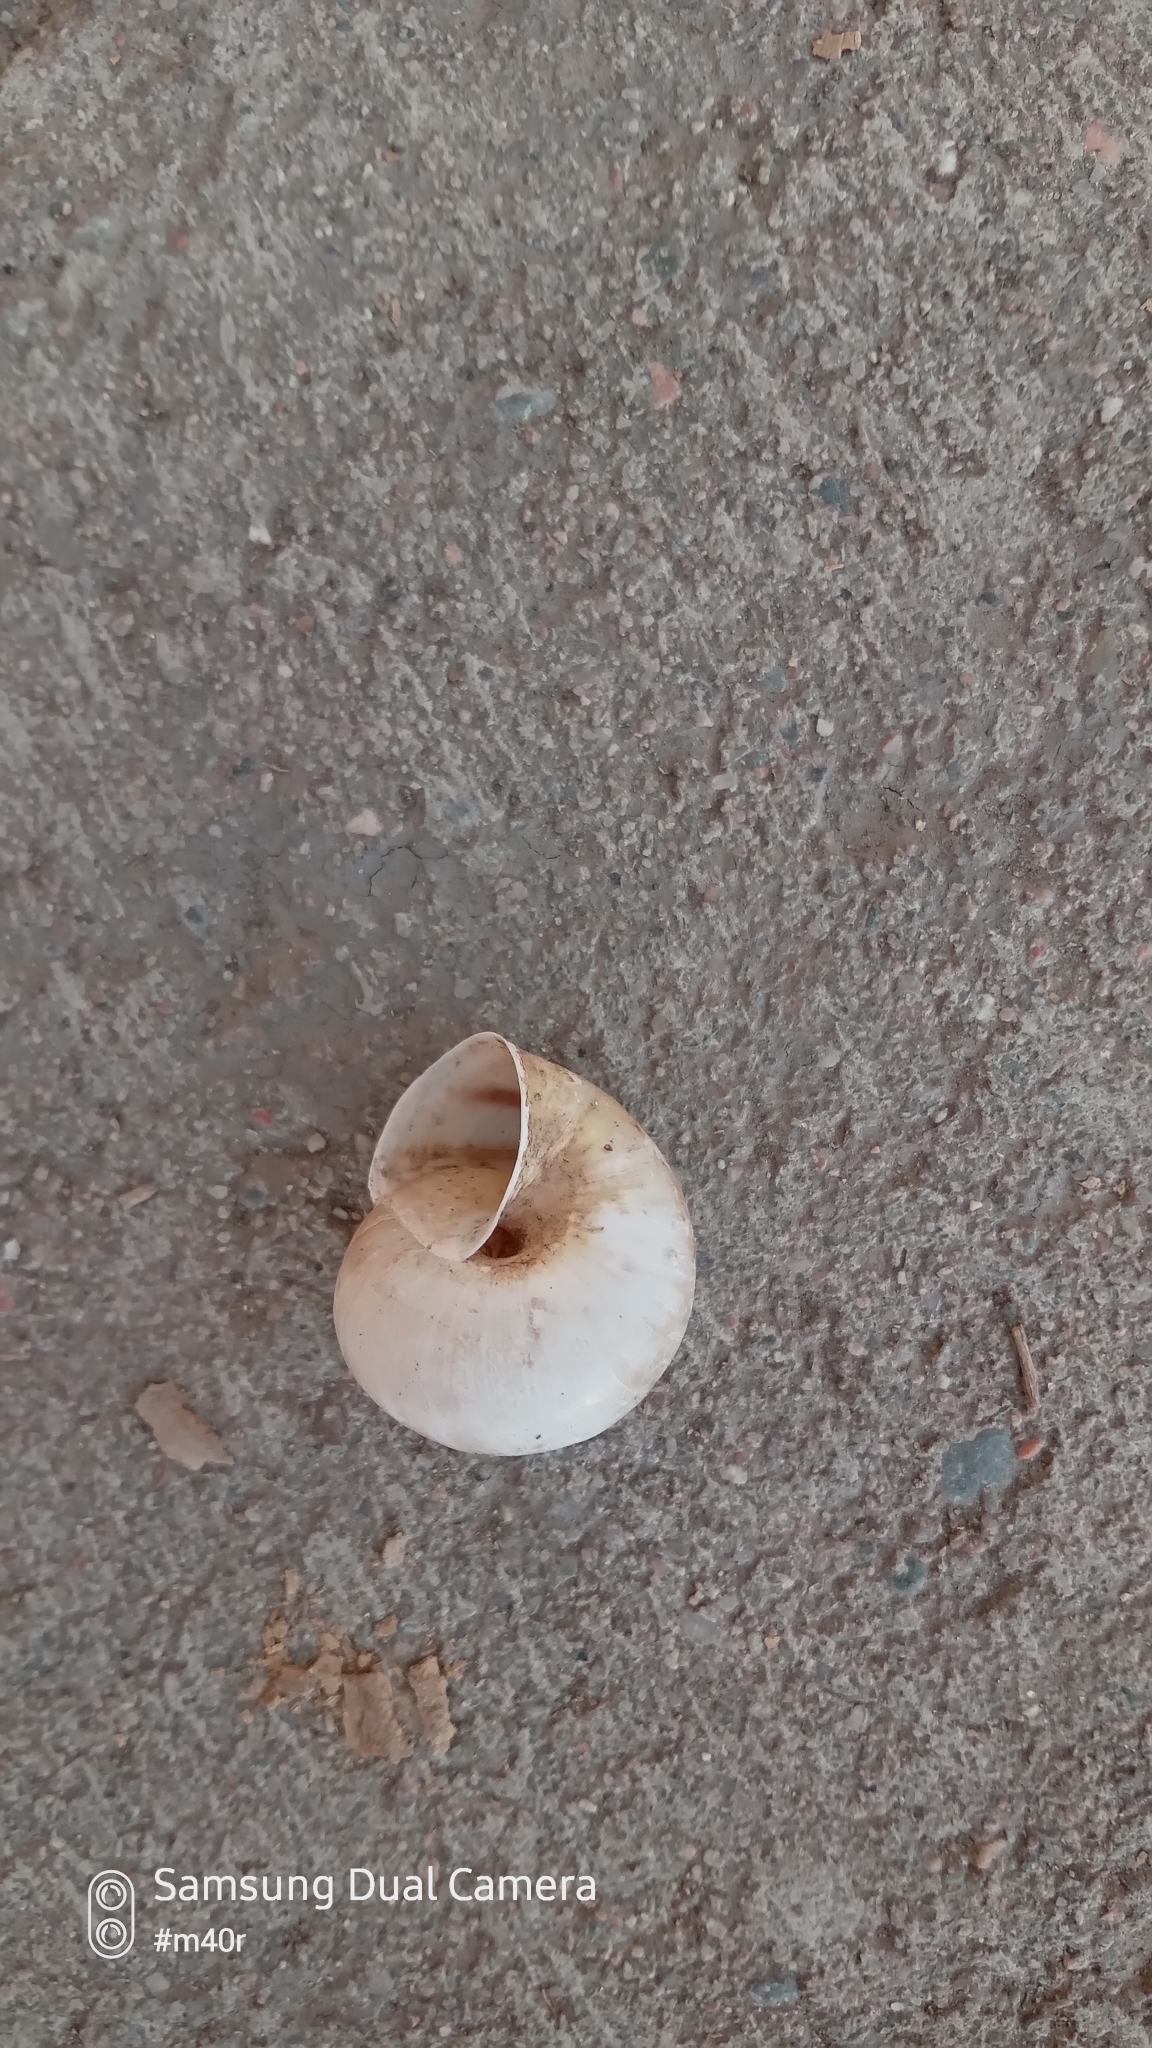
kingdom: Animalia
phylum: Mollusca
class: Gastropoda
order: Stylommatophora
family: Camaenidae
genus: Fruticicola
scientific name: Fruticicola lantzi
